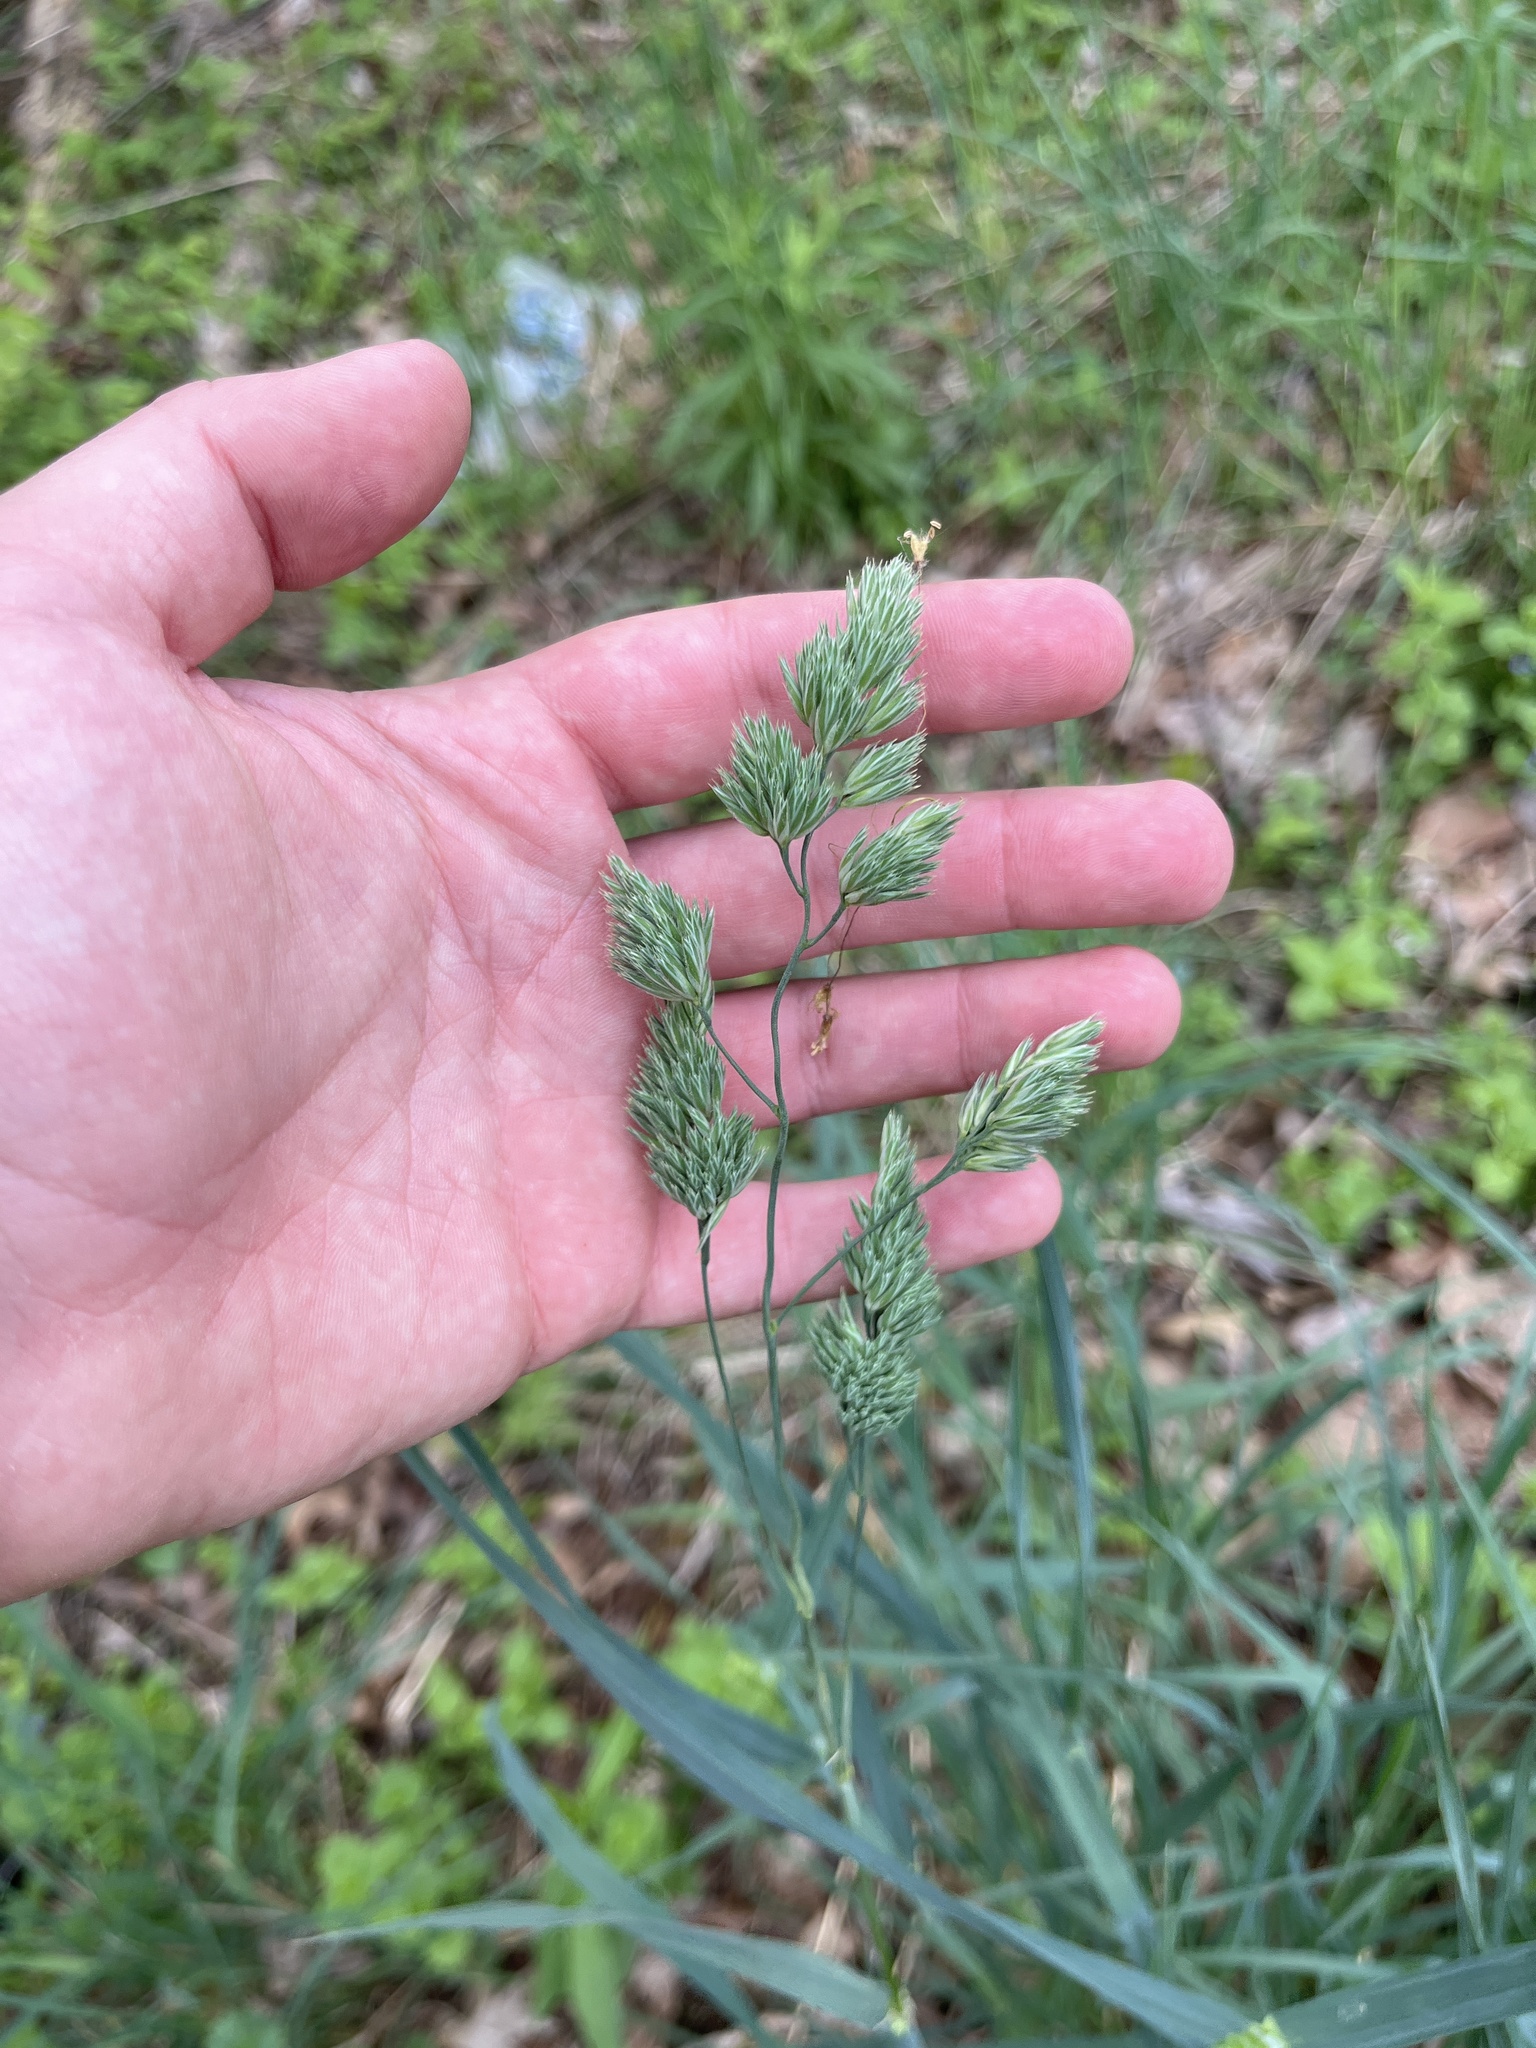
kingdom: Plantae
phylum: Tracheophyta
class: Liliopsida
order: Poales
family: Poaceae
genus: Dactylis
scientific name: Dactylis glomerata
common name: Orchardgrass
